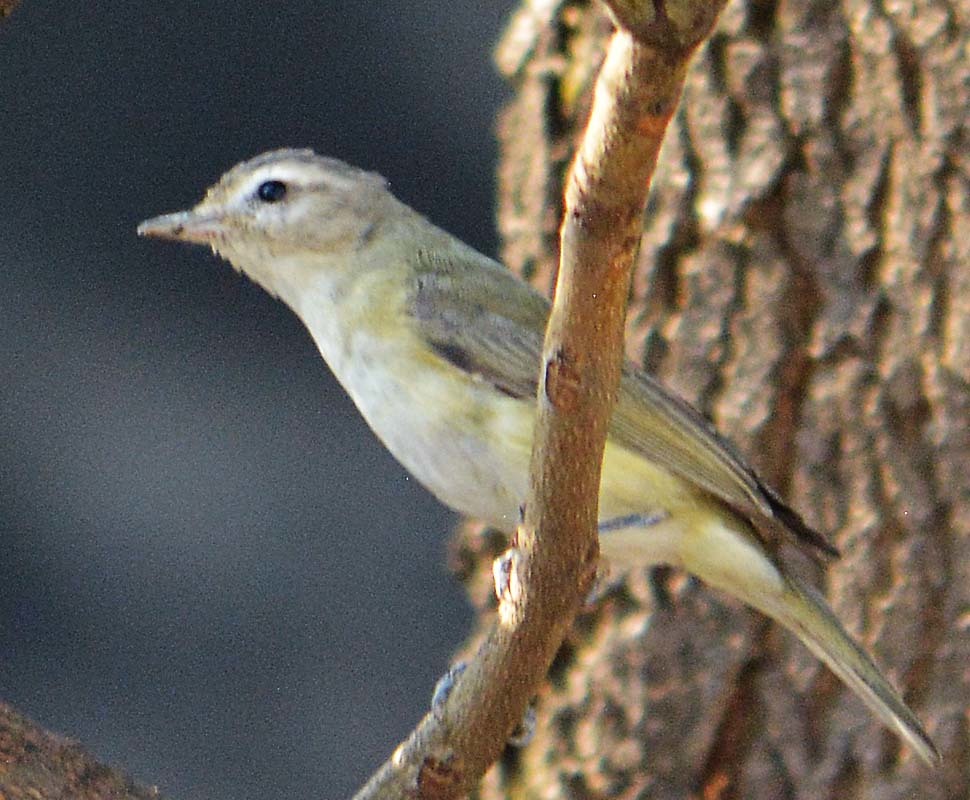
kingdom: Animalia
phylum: Chordata
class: Aves
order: Passeriformes
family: Vireonidae
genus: Vireo
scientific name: Vireo gilvus
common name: Warbling vireo
